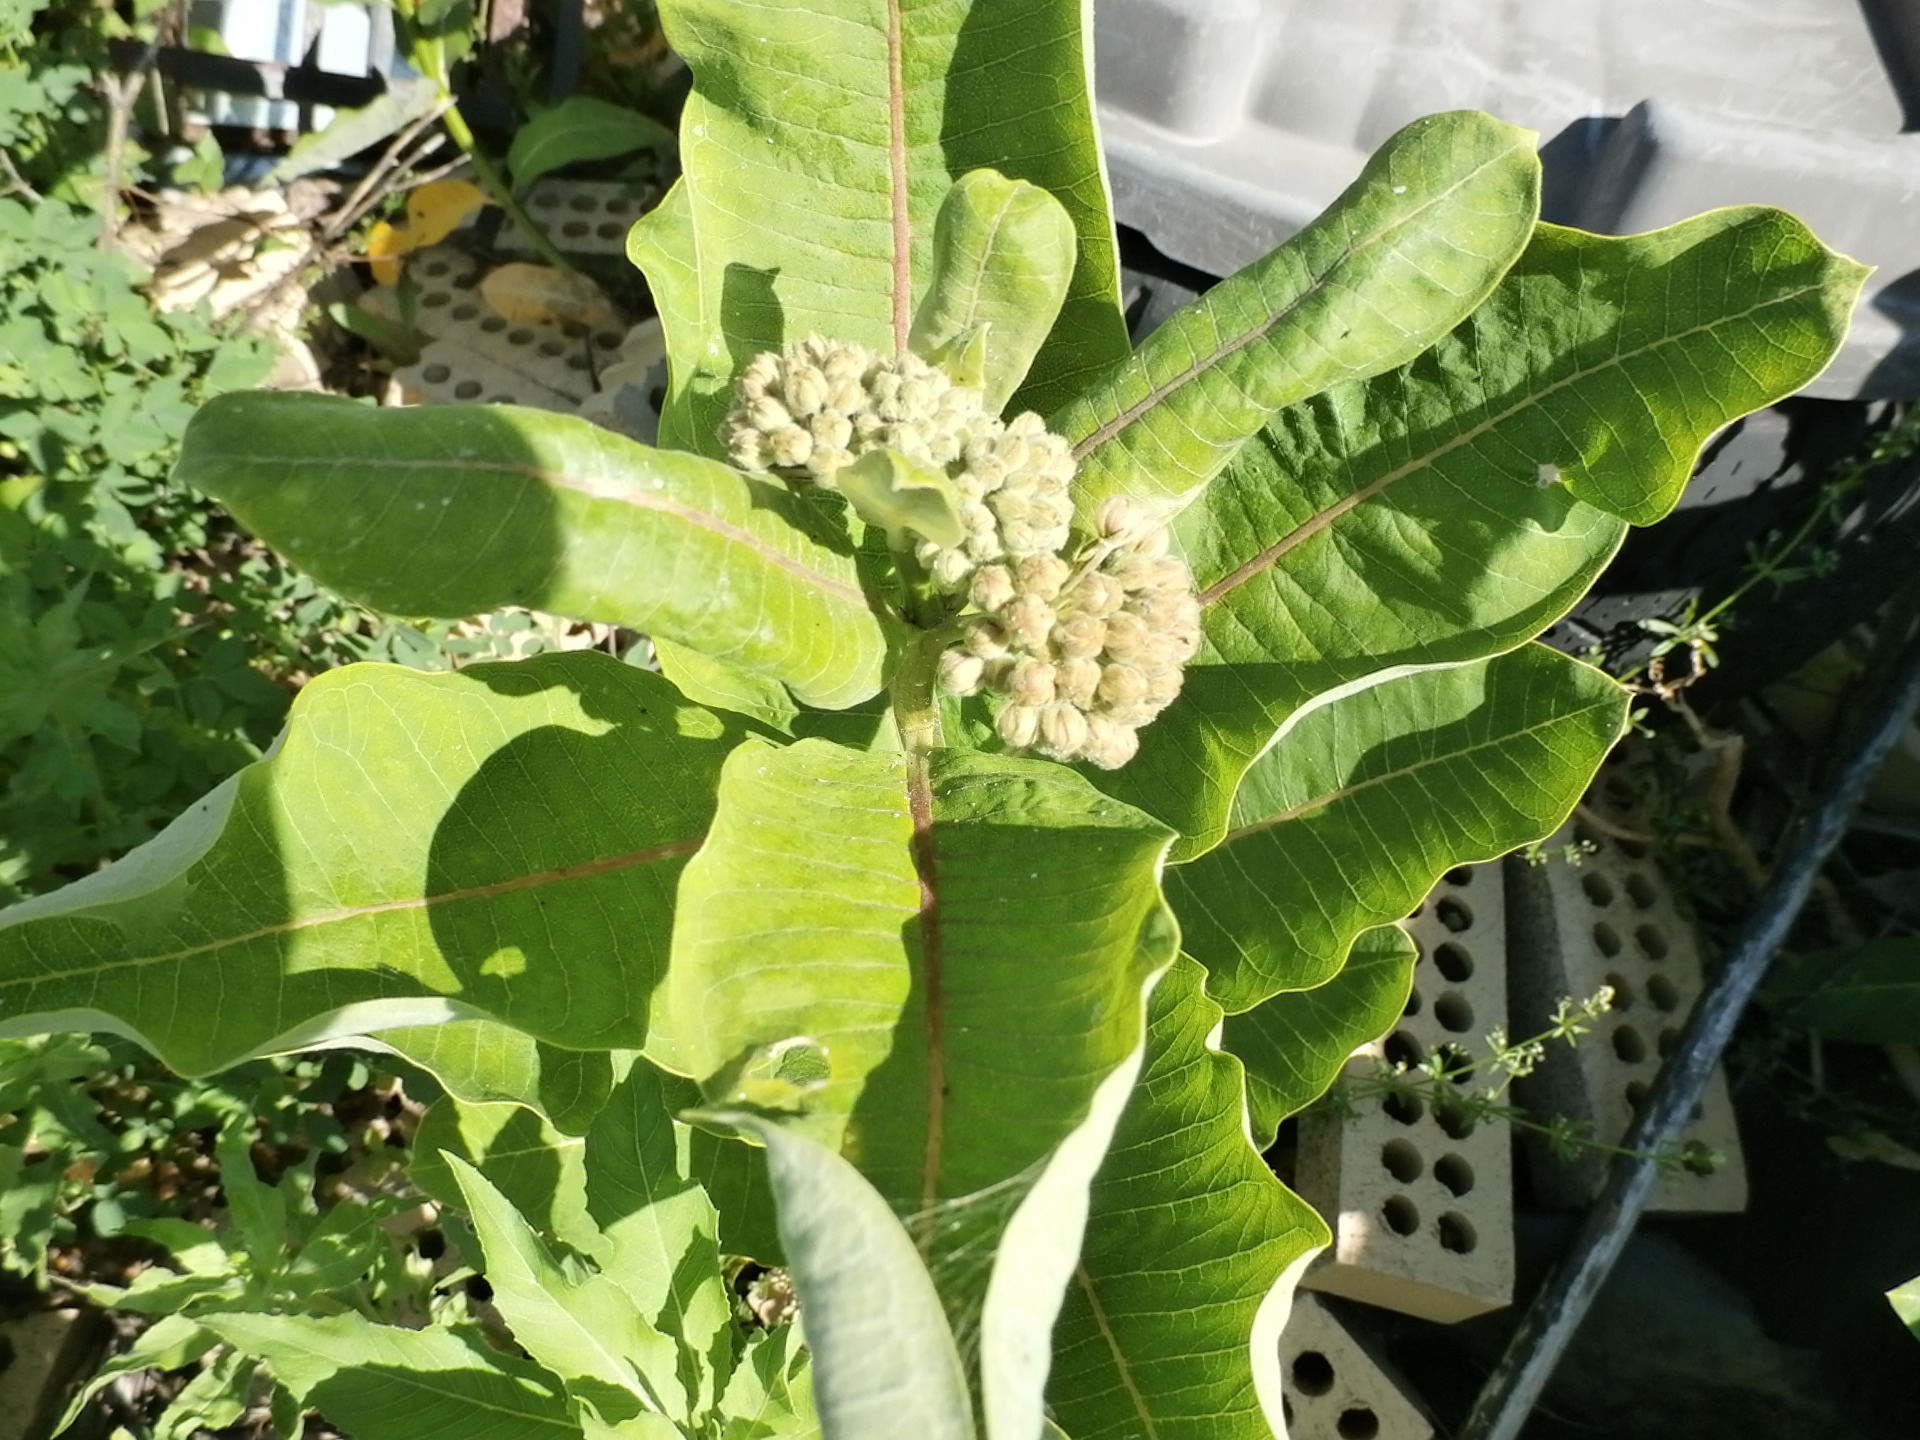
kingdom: Plantae
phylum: Tracheophyta
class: Magnoliopsida
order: Gentianales
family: Apocynaceae
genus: Asclepias
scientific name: Asclepias syriaca
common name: Common milkweed
